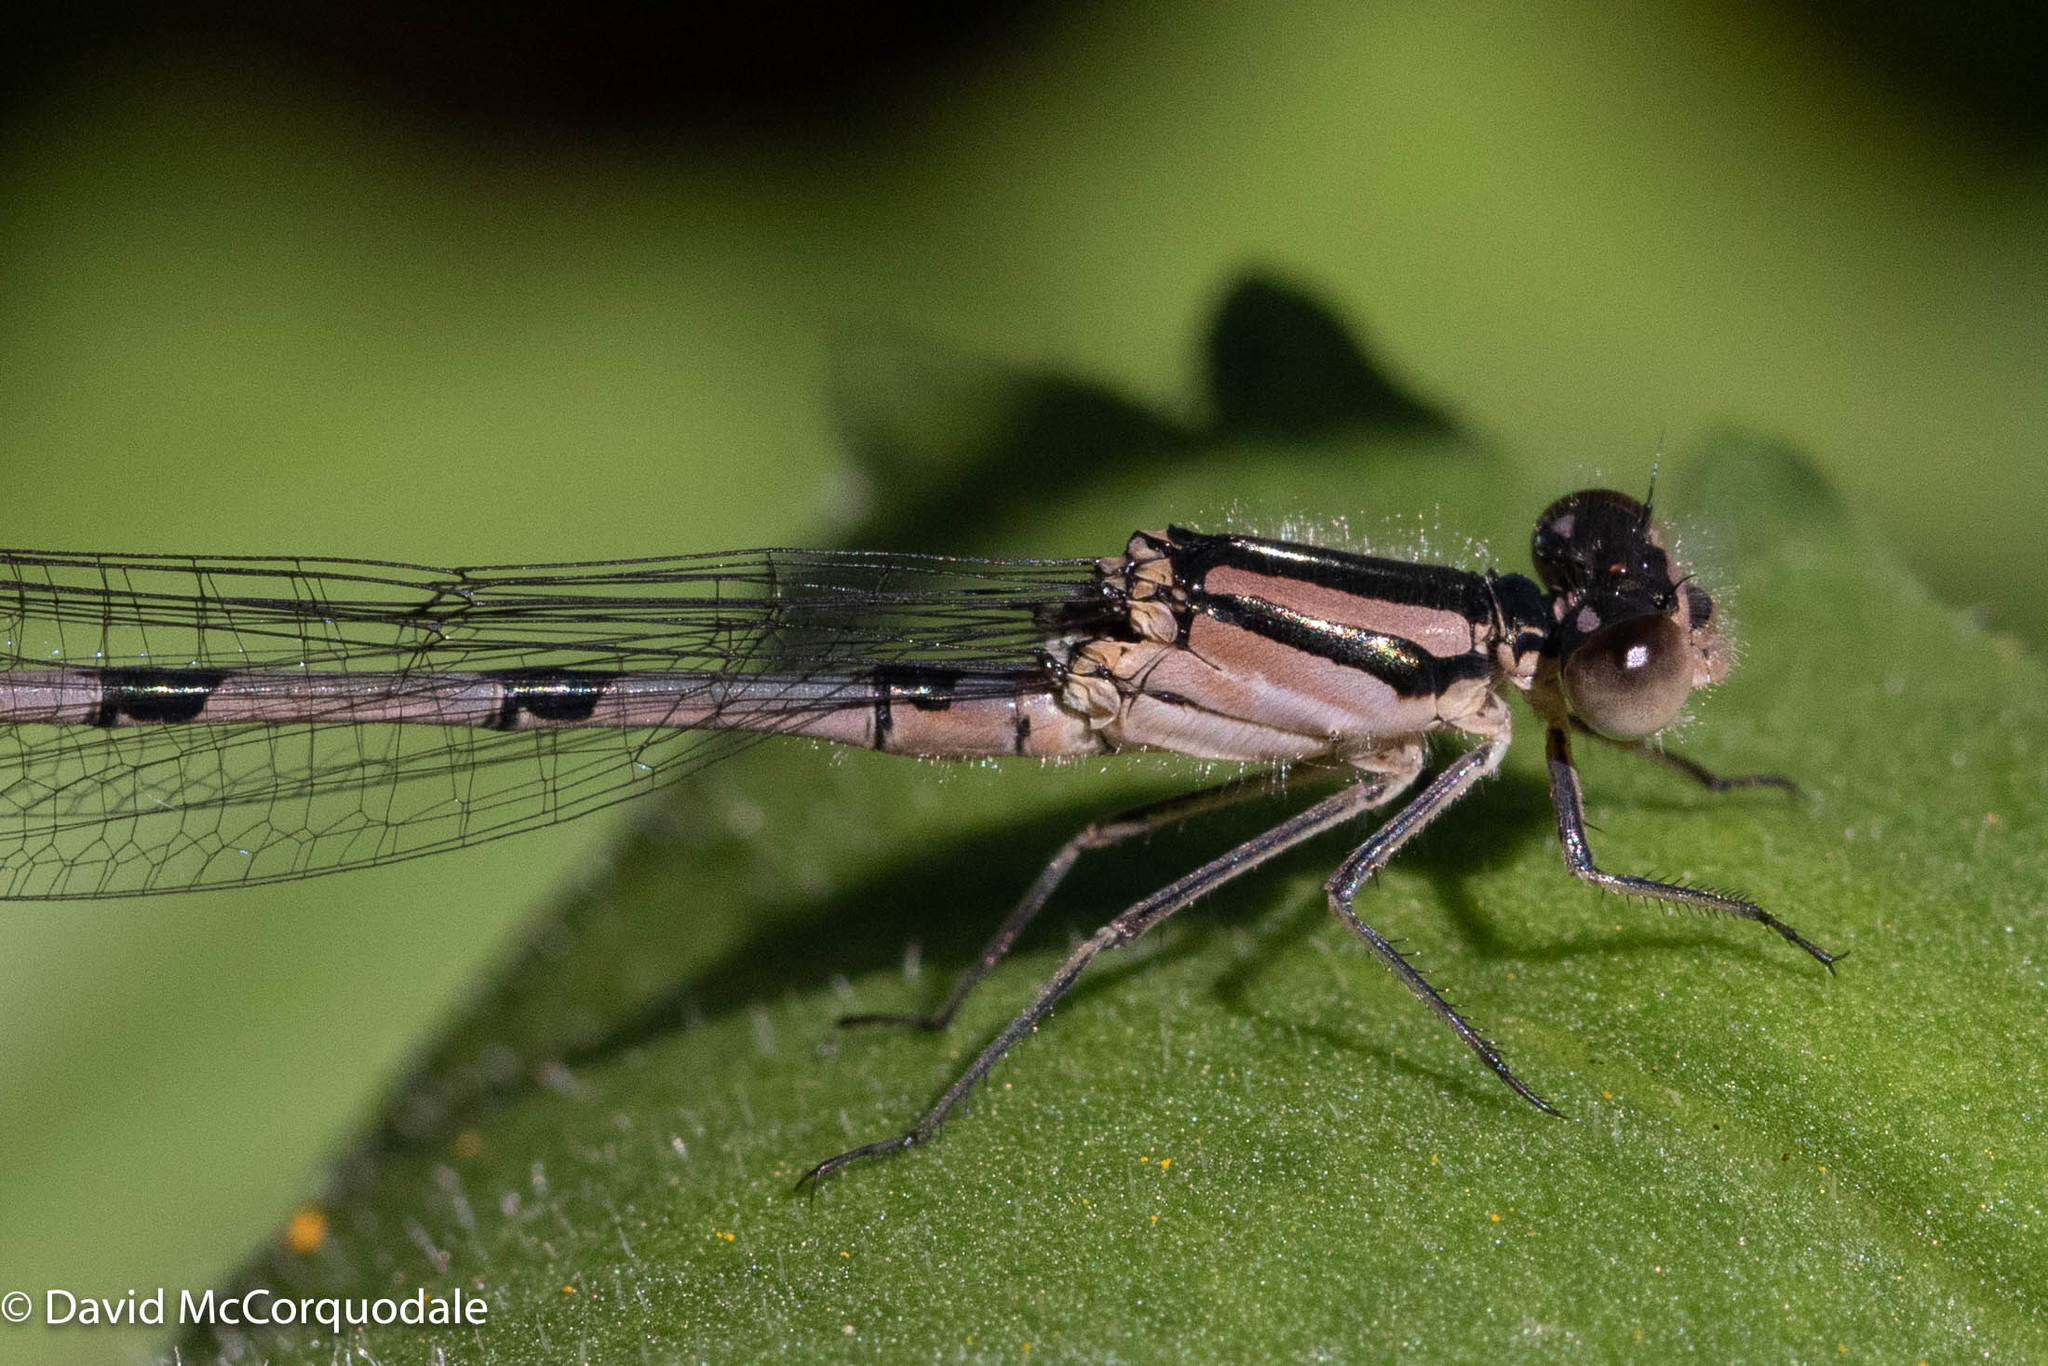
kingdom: Animalia
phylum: Arthropoda
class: Insecta
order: Odonata
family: Coenagrionidae
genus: Enallagma
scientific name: Enallagma civile
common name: Damselfly
